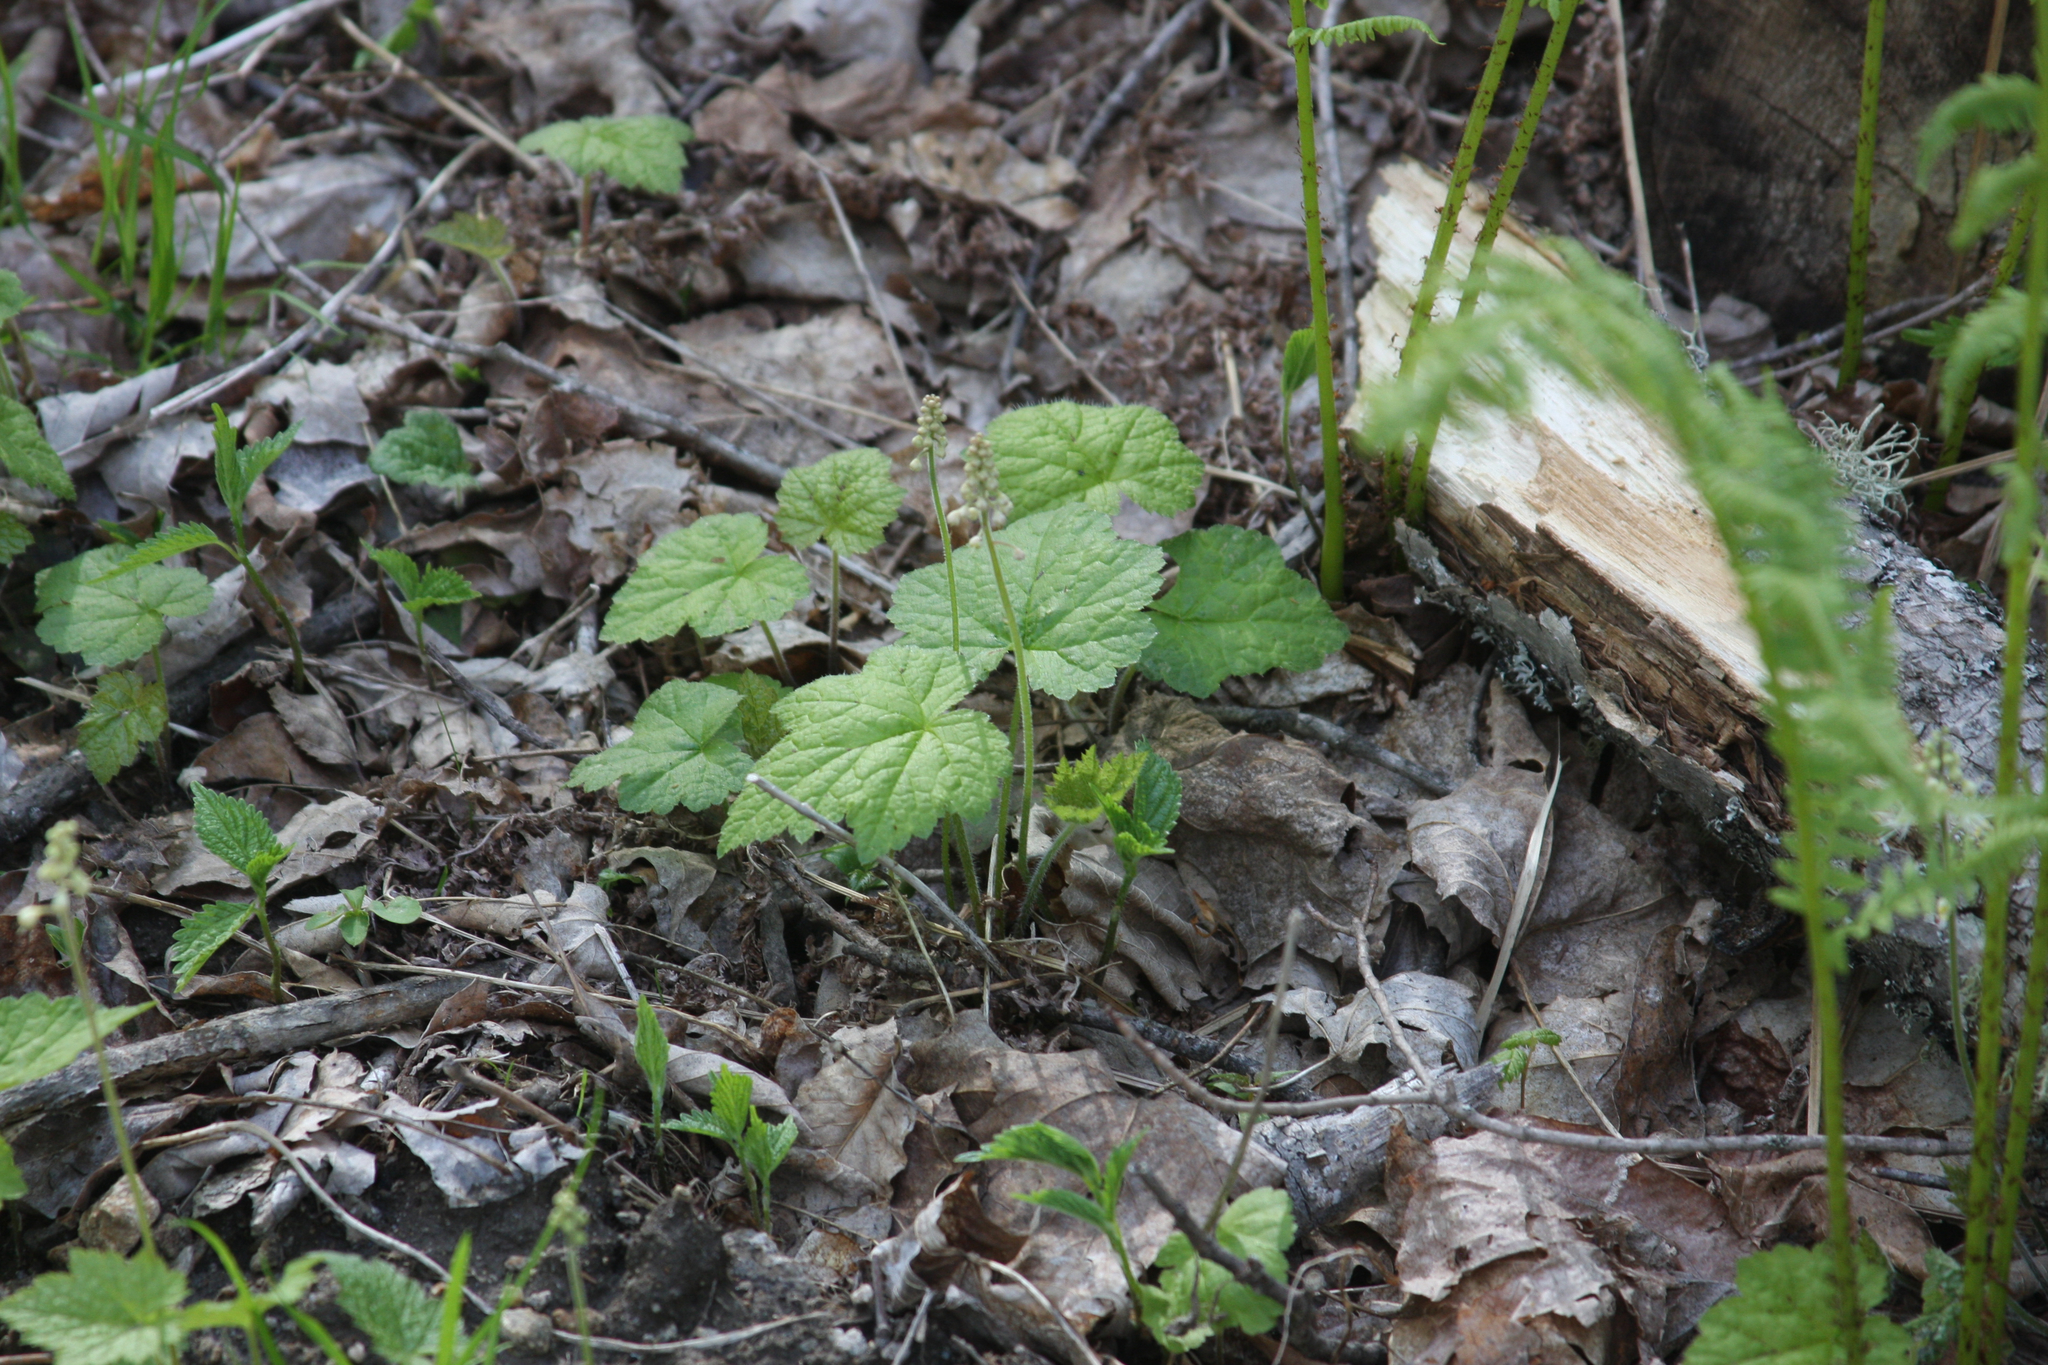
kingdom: Plantae
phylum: Tracheophyta
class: Magnoliopsida
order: Saxifragales
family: Saxifragaceae
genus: Tiarella
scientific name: Tiarella stolonifera
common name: Stoloniferous foamflower
